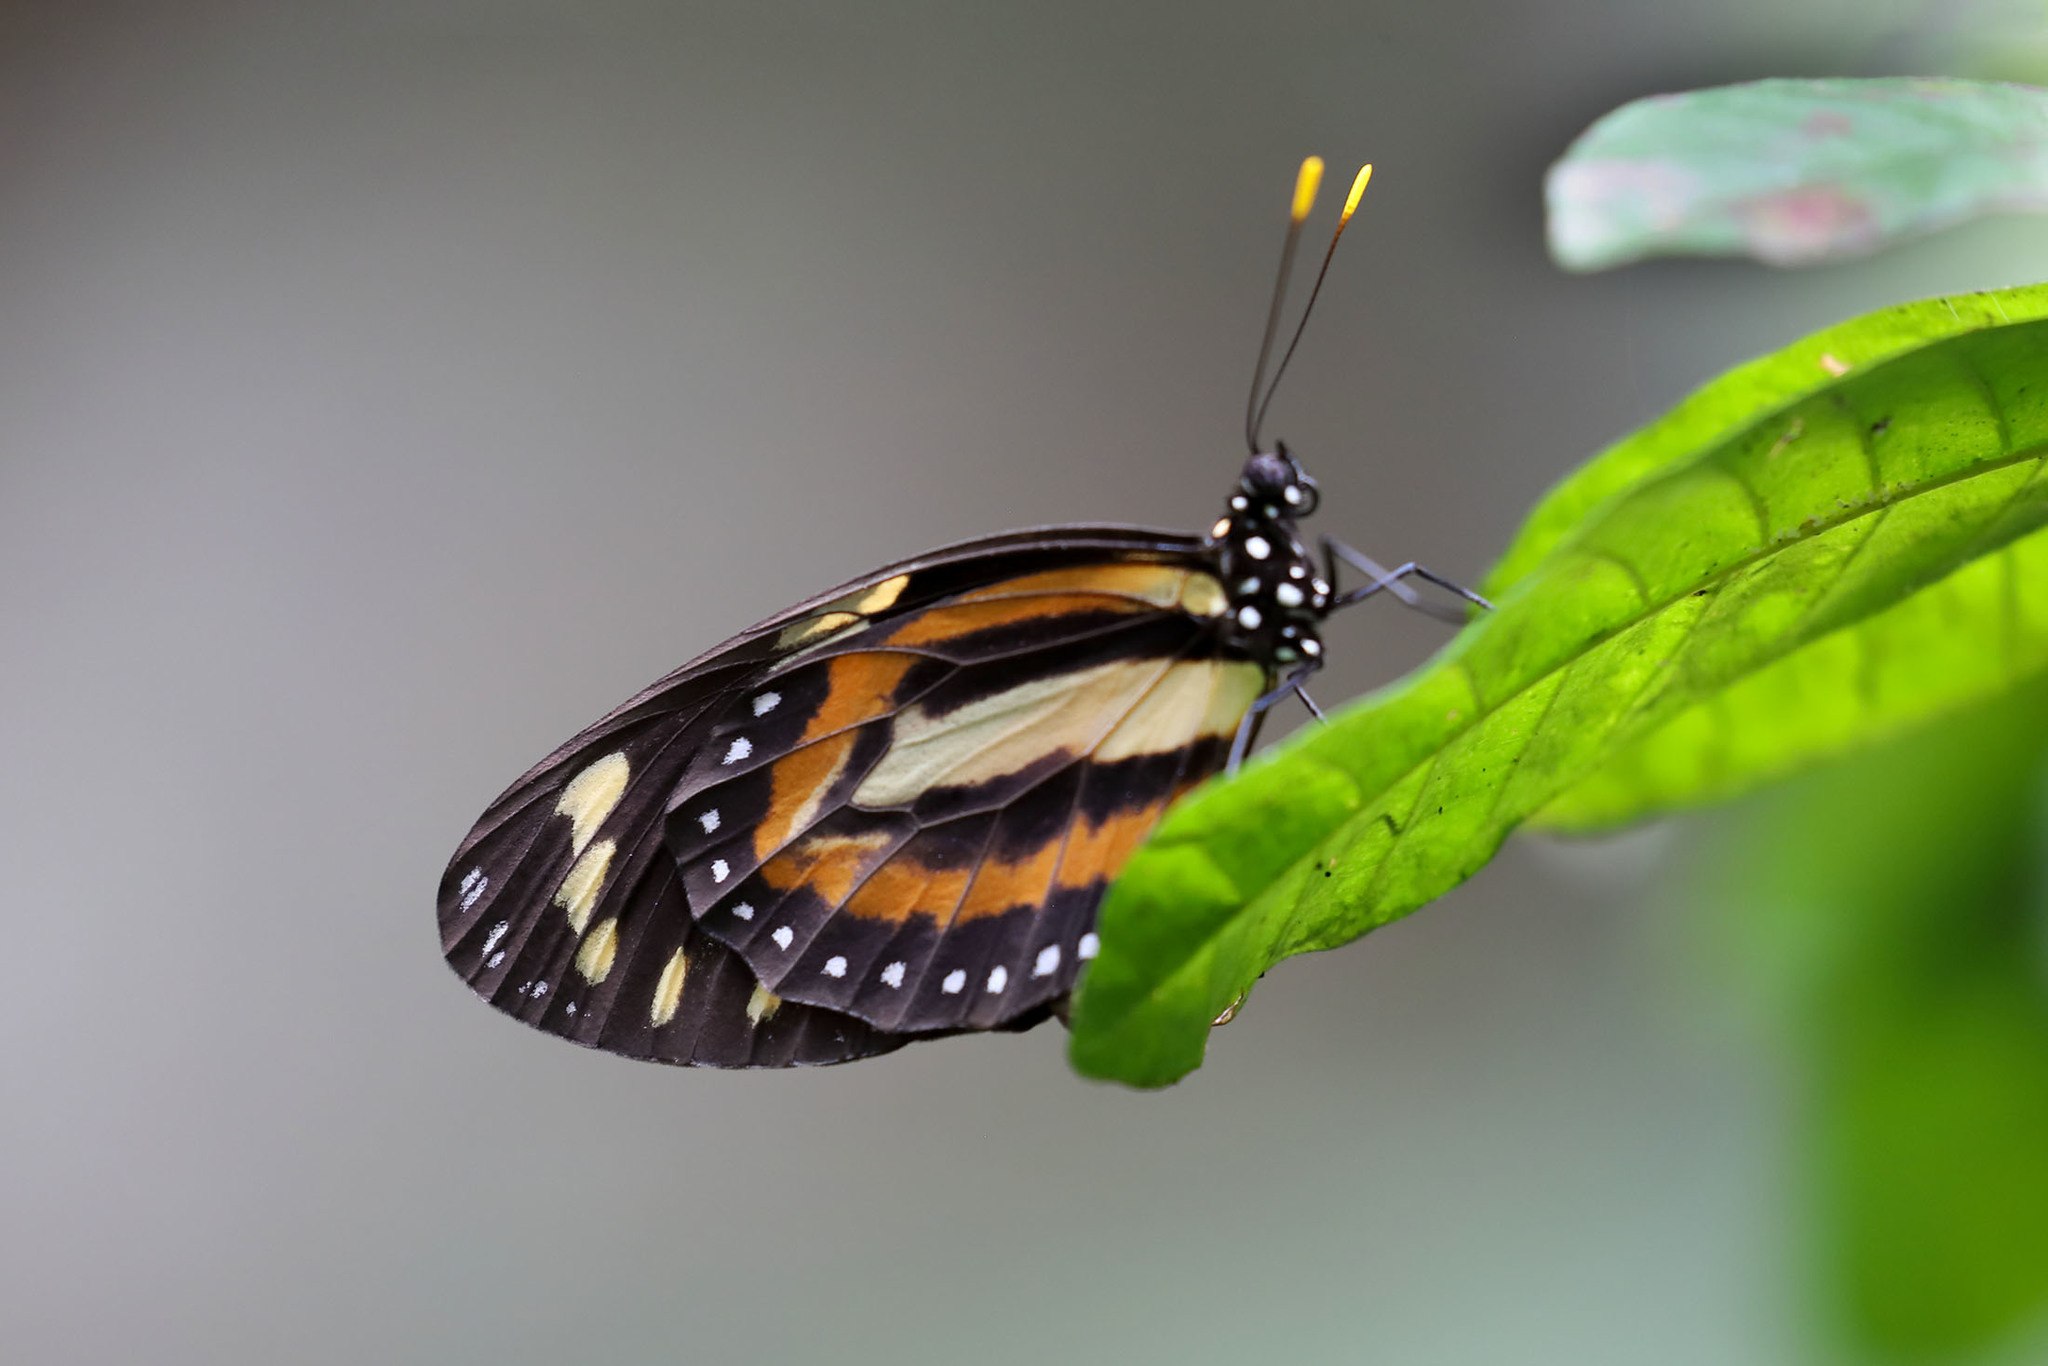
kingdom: Animalia
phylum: Arthropoda
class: Insecta
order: Lepidoptera
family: Nymphalidae
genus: Lycorea
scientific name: Lycorea cleobaea
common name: Tiger mimic-queen
